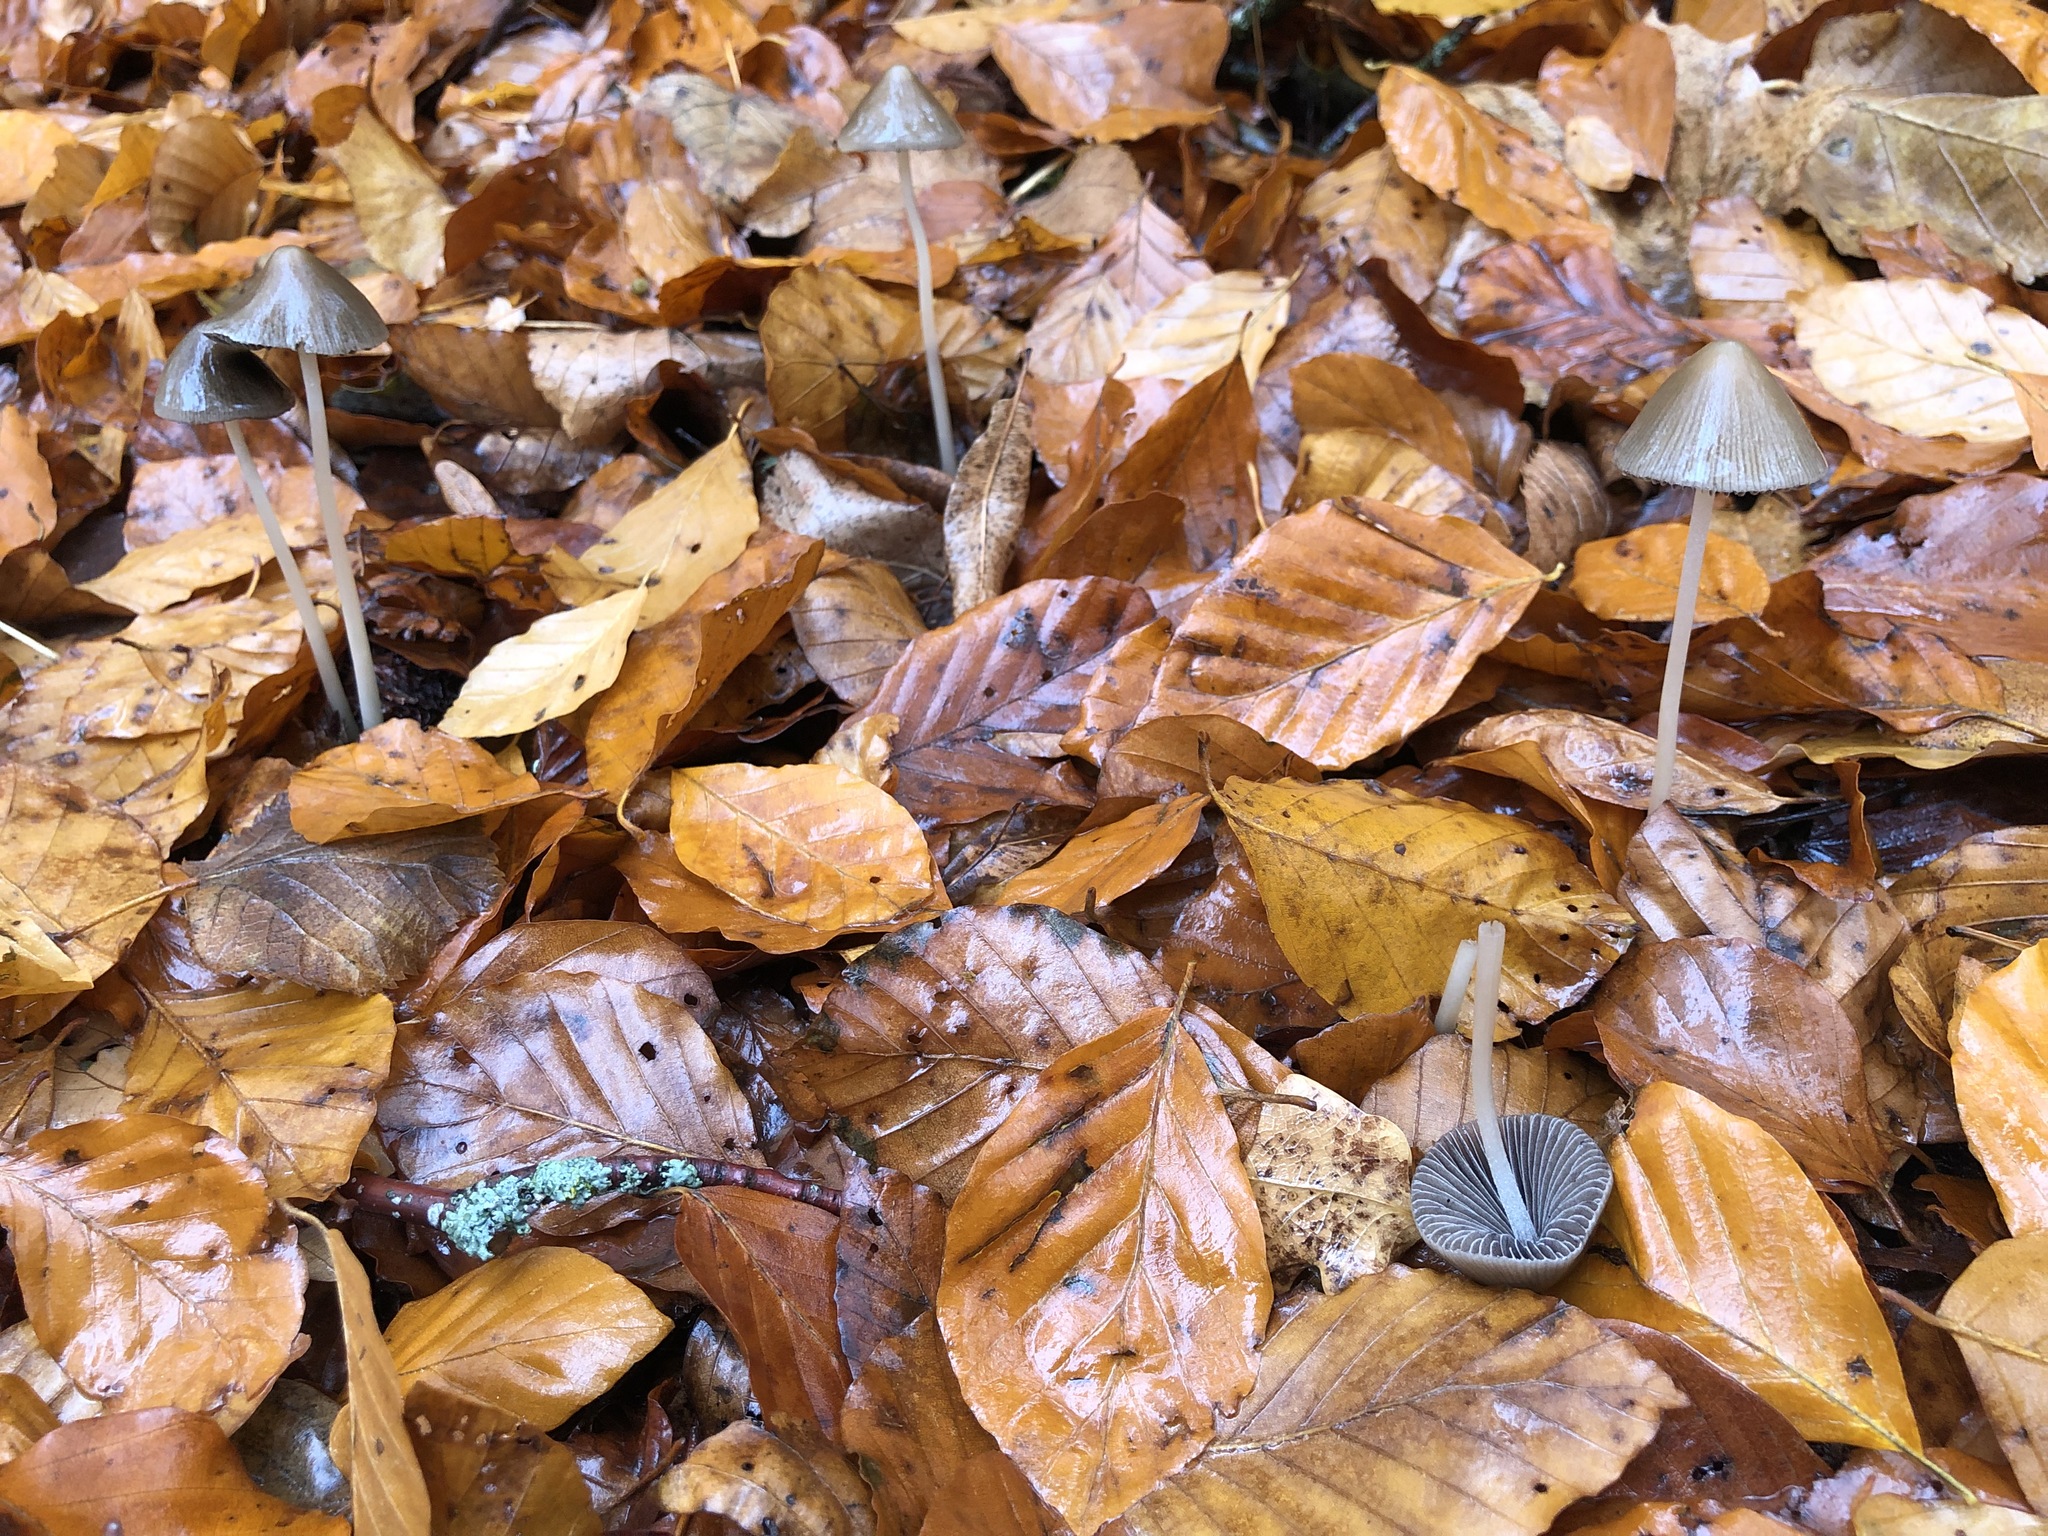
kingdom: Fungi
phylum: Basidiomycota
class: Agaricomycetes
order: Agaricales
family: Psathyrellaceae
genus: Parasola
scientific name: Parasola conopilea
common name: Conical brittlestem
